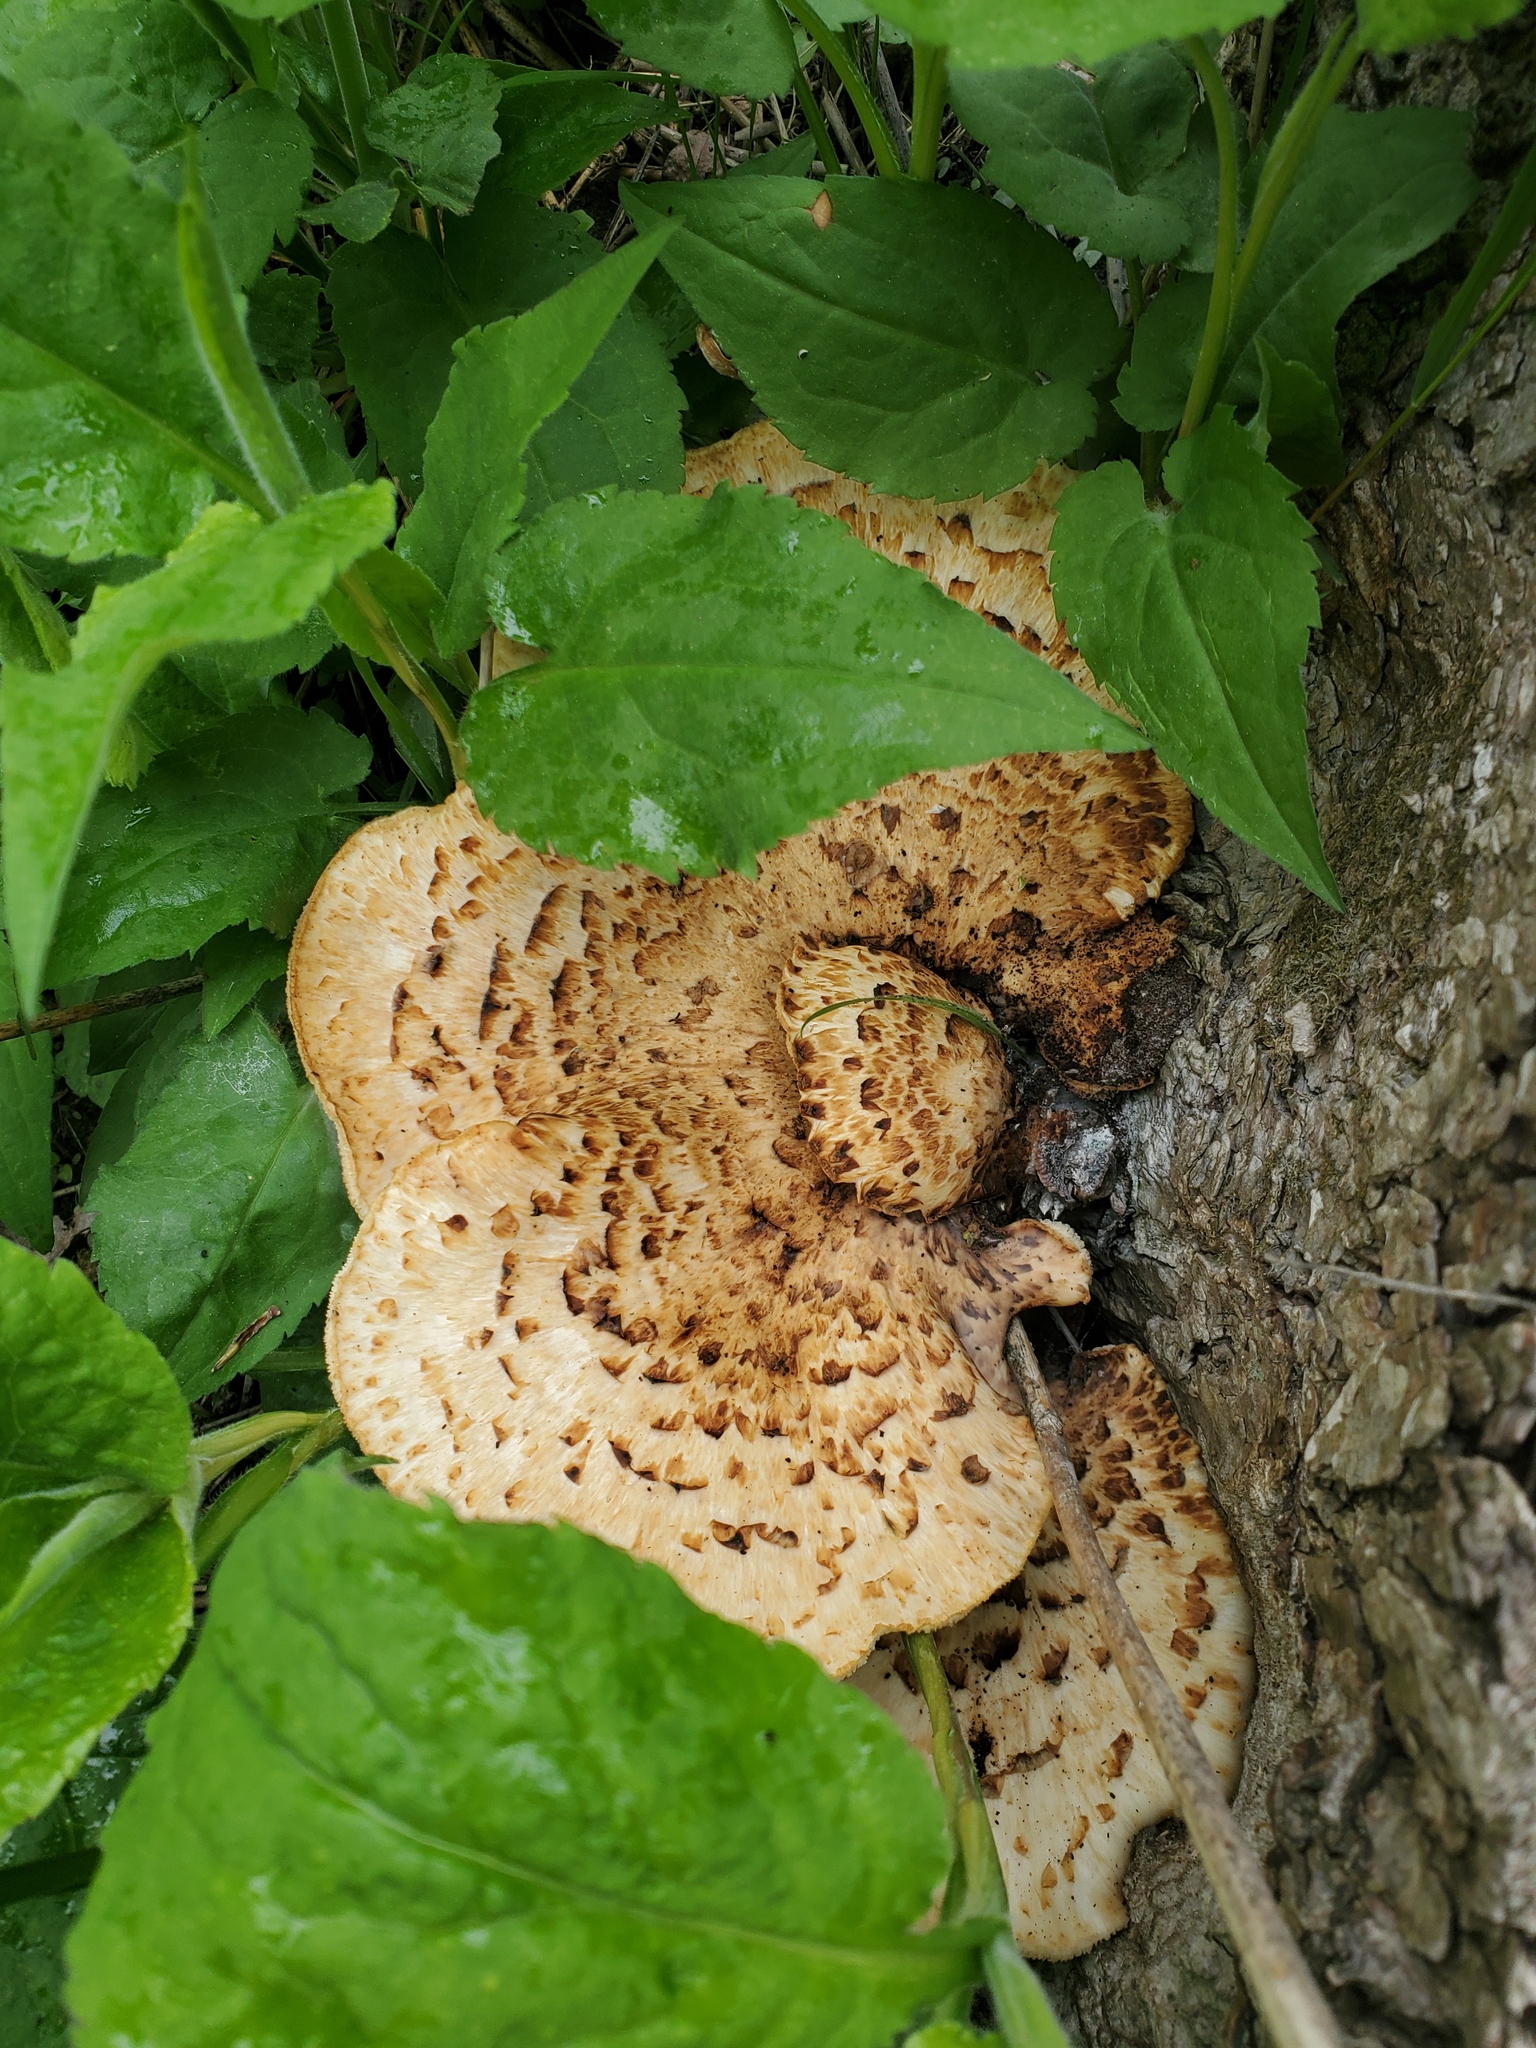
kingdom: Fungi
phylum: Basidiomycota
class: Agaricomycetes
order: Polyporales
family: Polyporaceae
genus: Cerioporus
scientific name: Cerioporus squamosus
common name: Dryad's saddle
